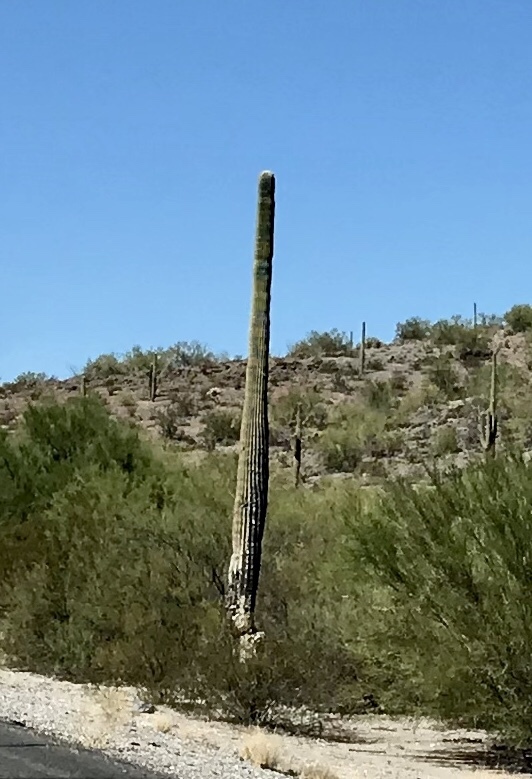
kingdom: Plantae
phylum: Tracheophyta
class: Magnoliopsida
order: Caryophyllales
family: Cactaceae
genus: Carnegiea
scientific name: Carnegiea gigantea
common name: Saguaro
